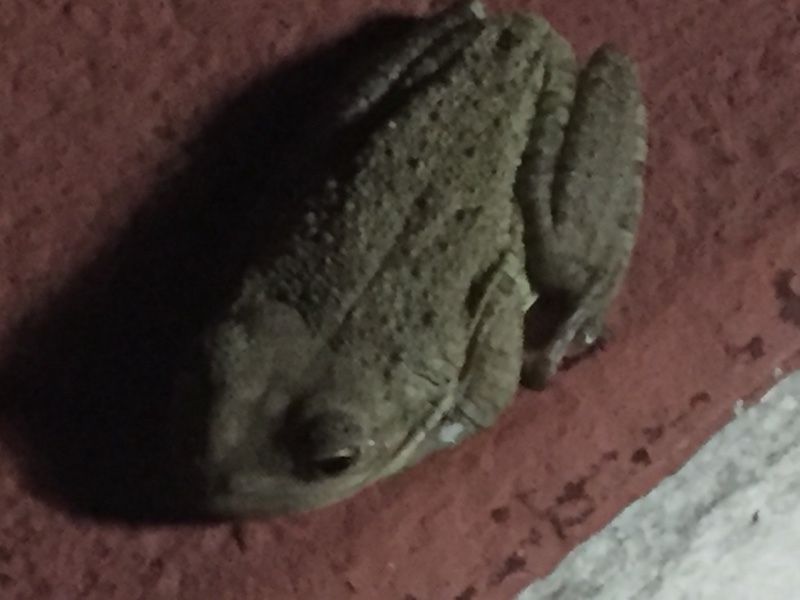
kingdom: Animalia
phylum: Chordata
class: Amphibia
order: Anura
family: Hylidae
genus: Osteopilus
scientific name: Osteopilus septentrionalis
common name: Cuban treefrog
